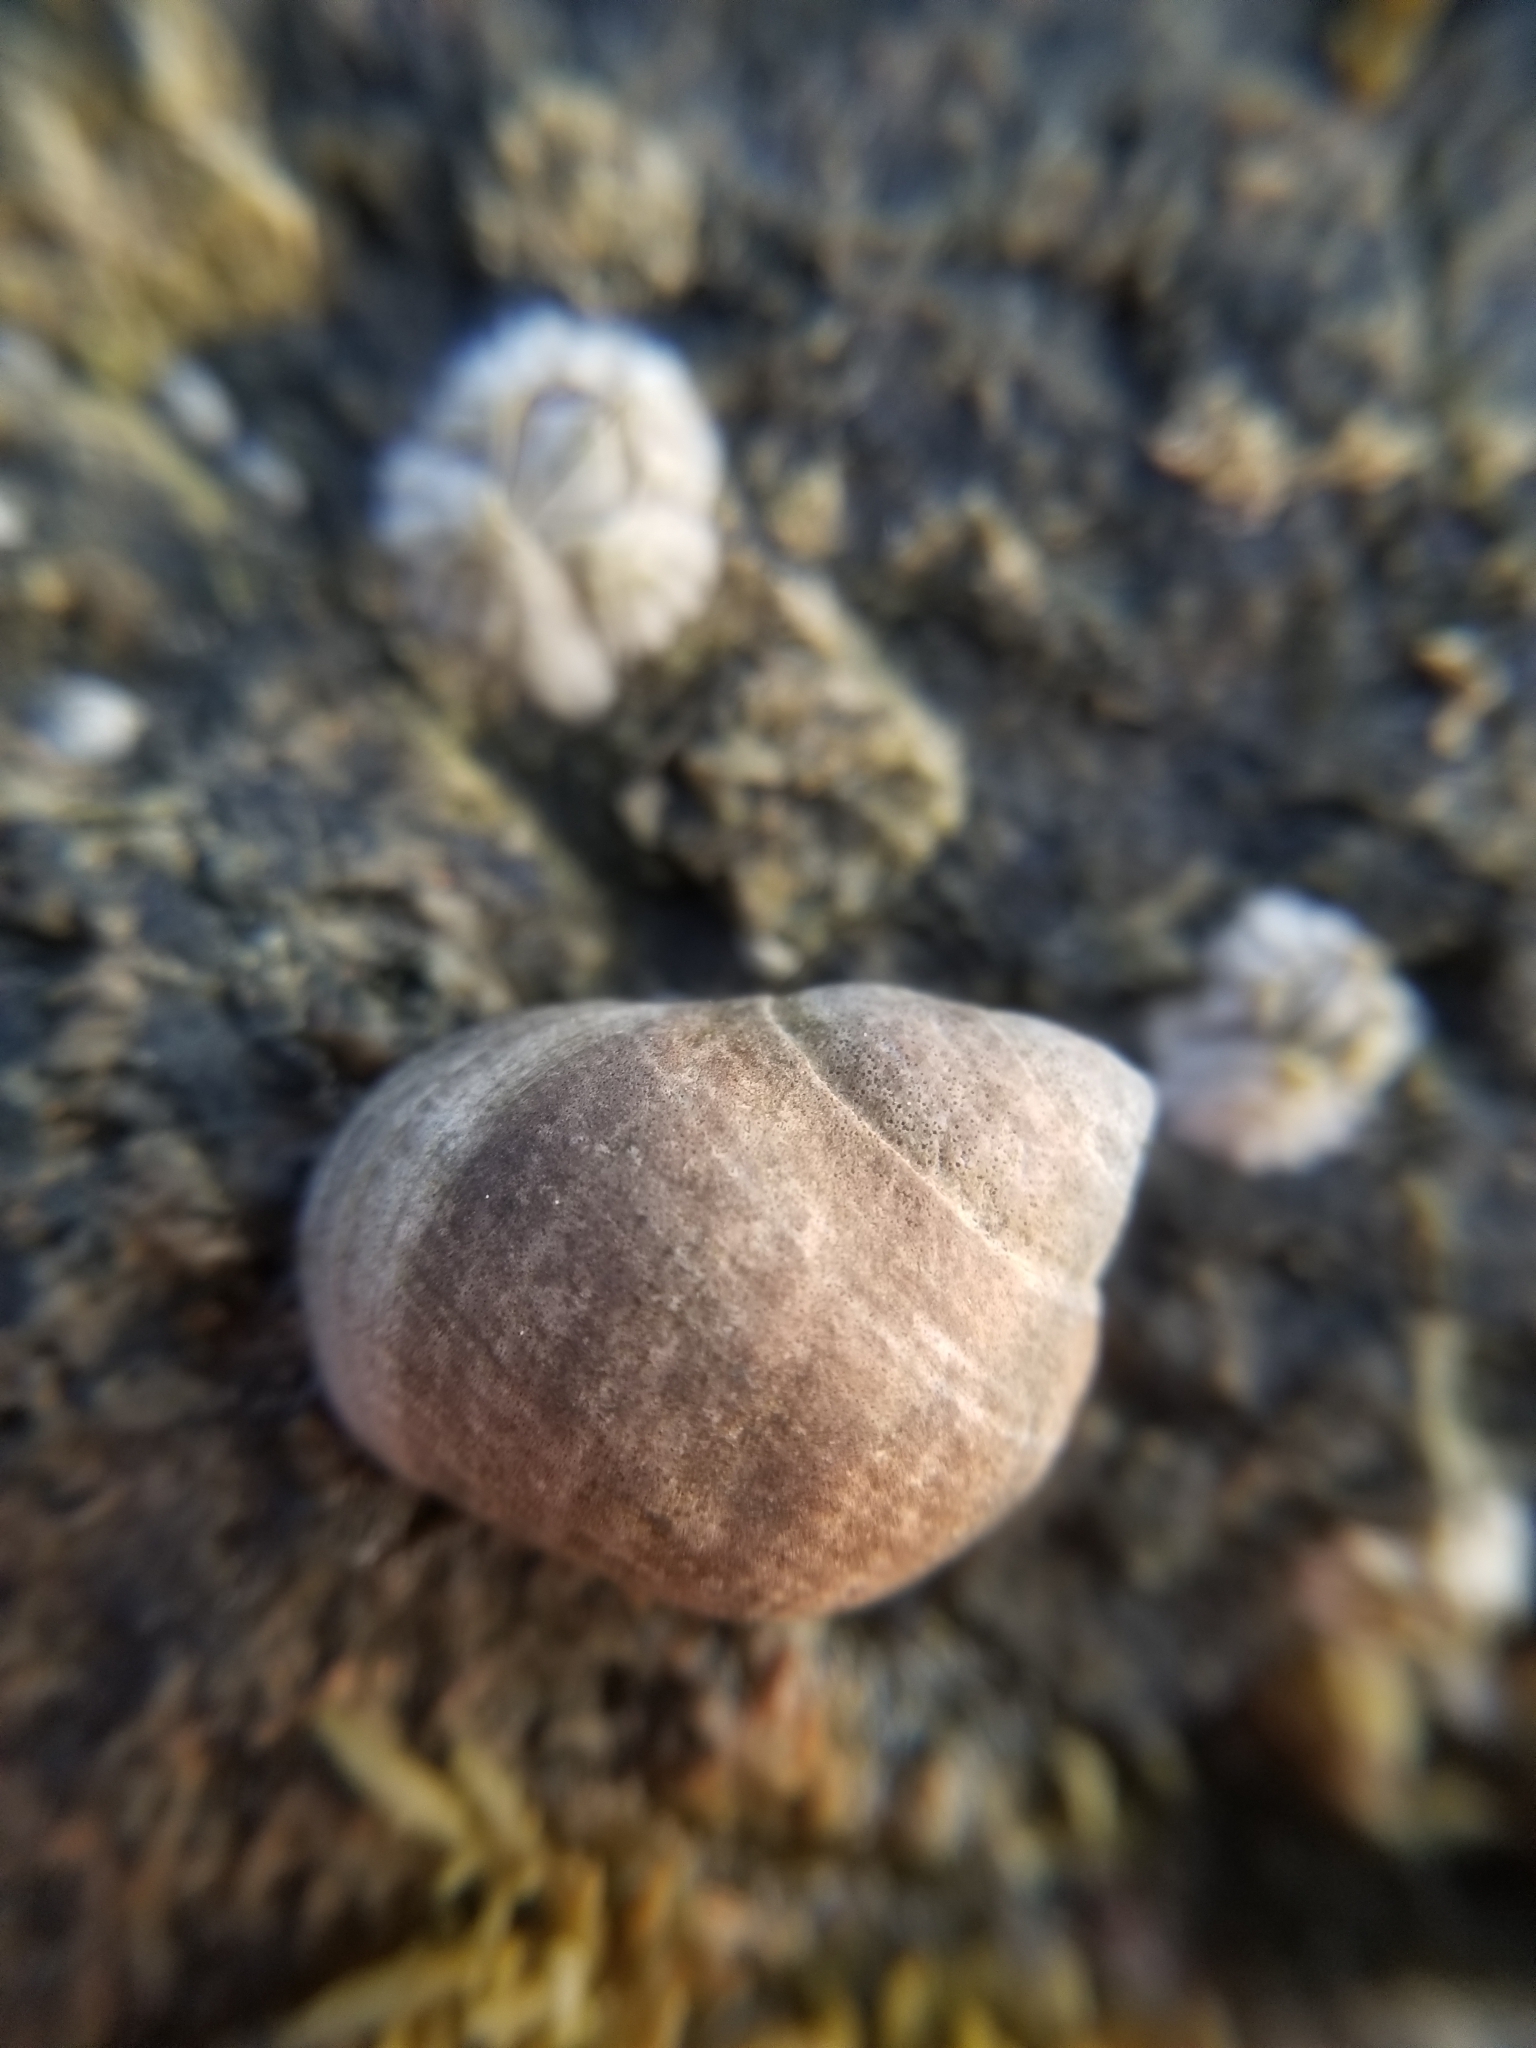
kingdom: Animalia
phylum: Mollusca
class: Gastropoda
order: Littorinimorpha
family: Littorinidae
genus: Littorina
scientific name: Littorina littorea
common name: Common periwinkle
